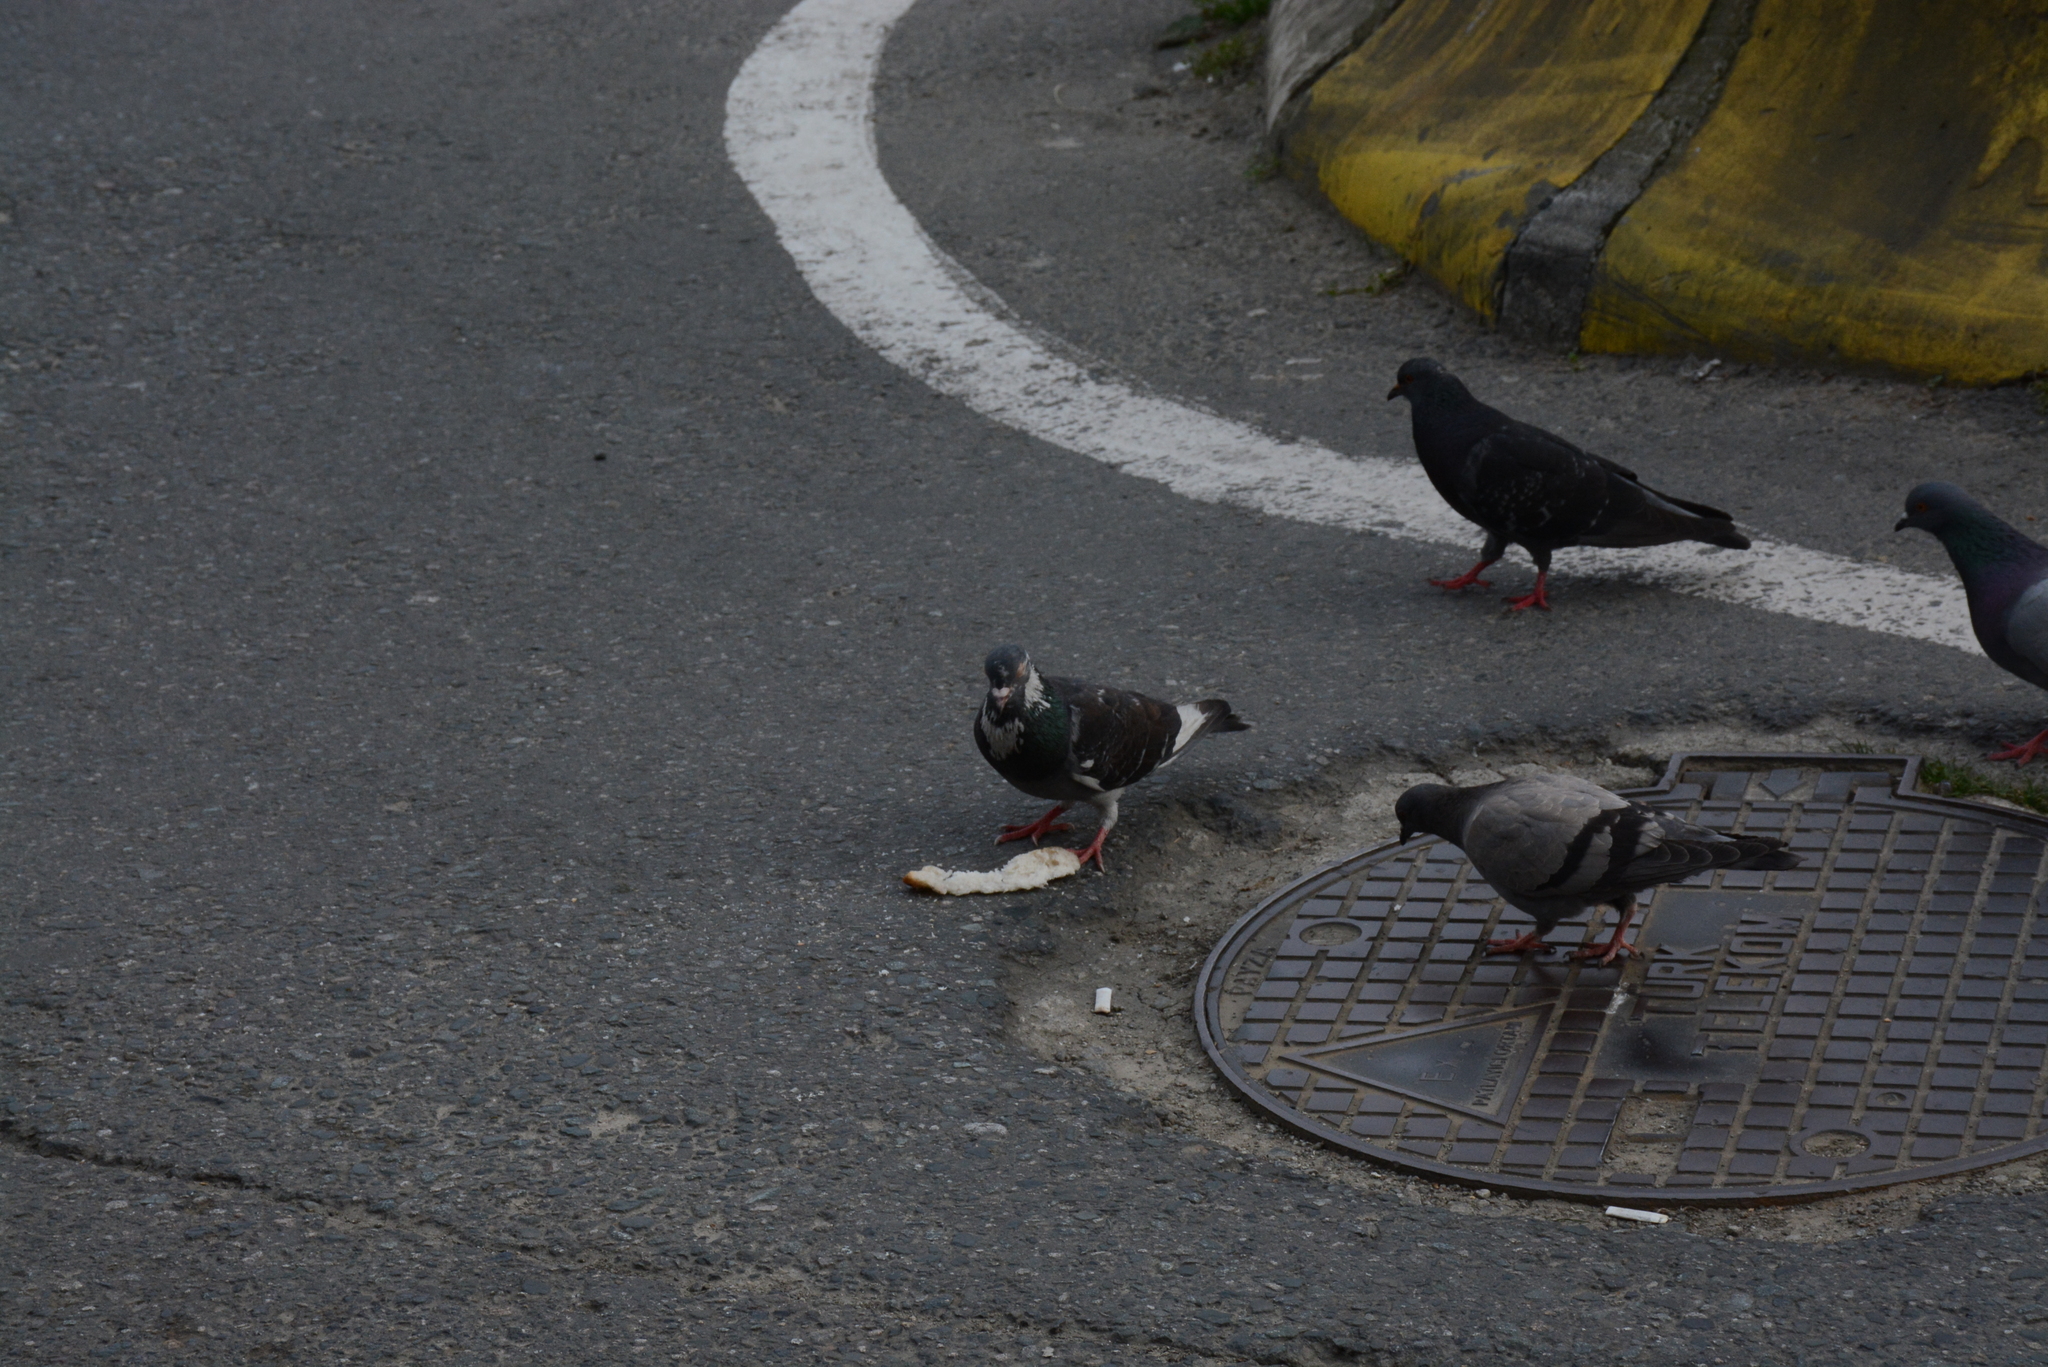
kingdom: Animalia
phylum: Chordata
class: Aves
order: Columbiformes
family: Columbidae
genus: Columba
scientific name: Columba livia
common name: Rock pigeon
